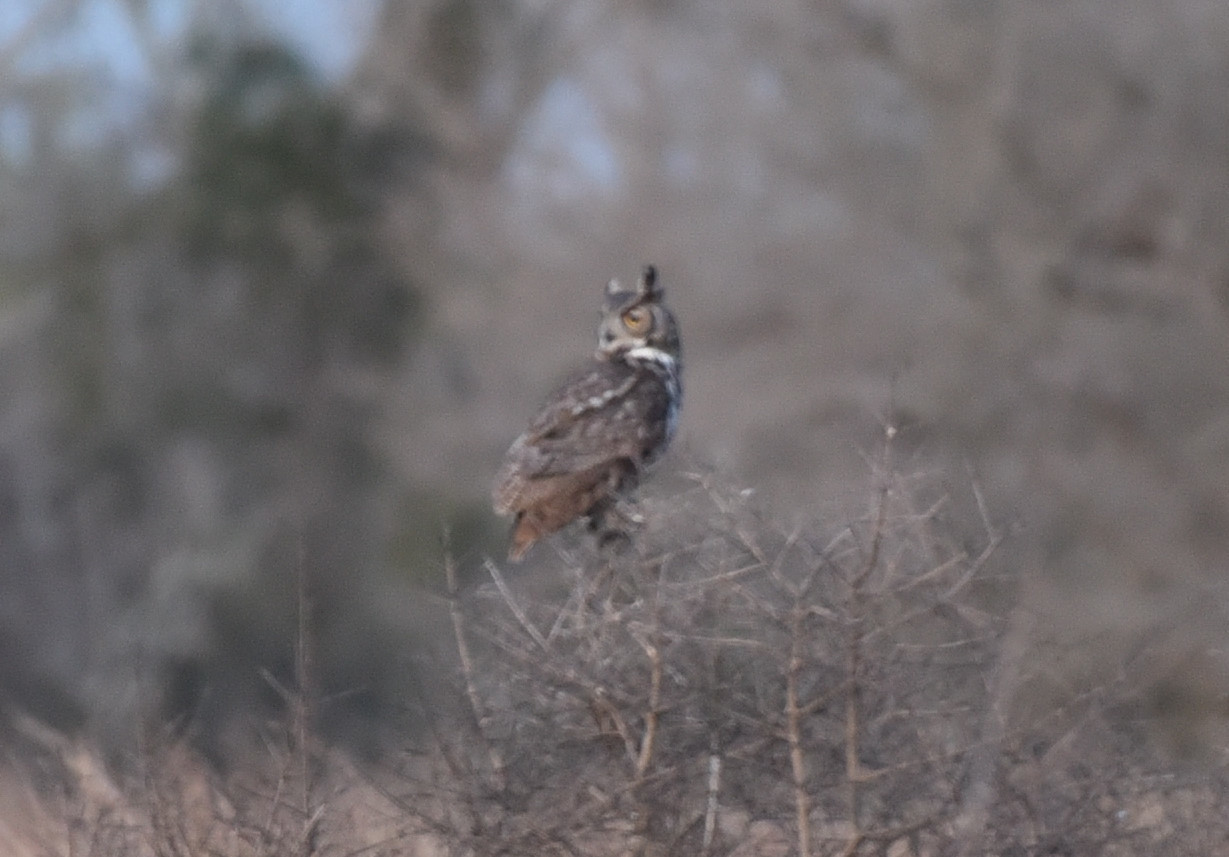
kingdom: Animalia
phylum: Chordata
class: Aves
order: Strigiformes
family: Strigidae
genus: Bubo
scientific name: Bubo virginianus
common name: Great horned owl
